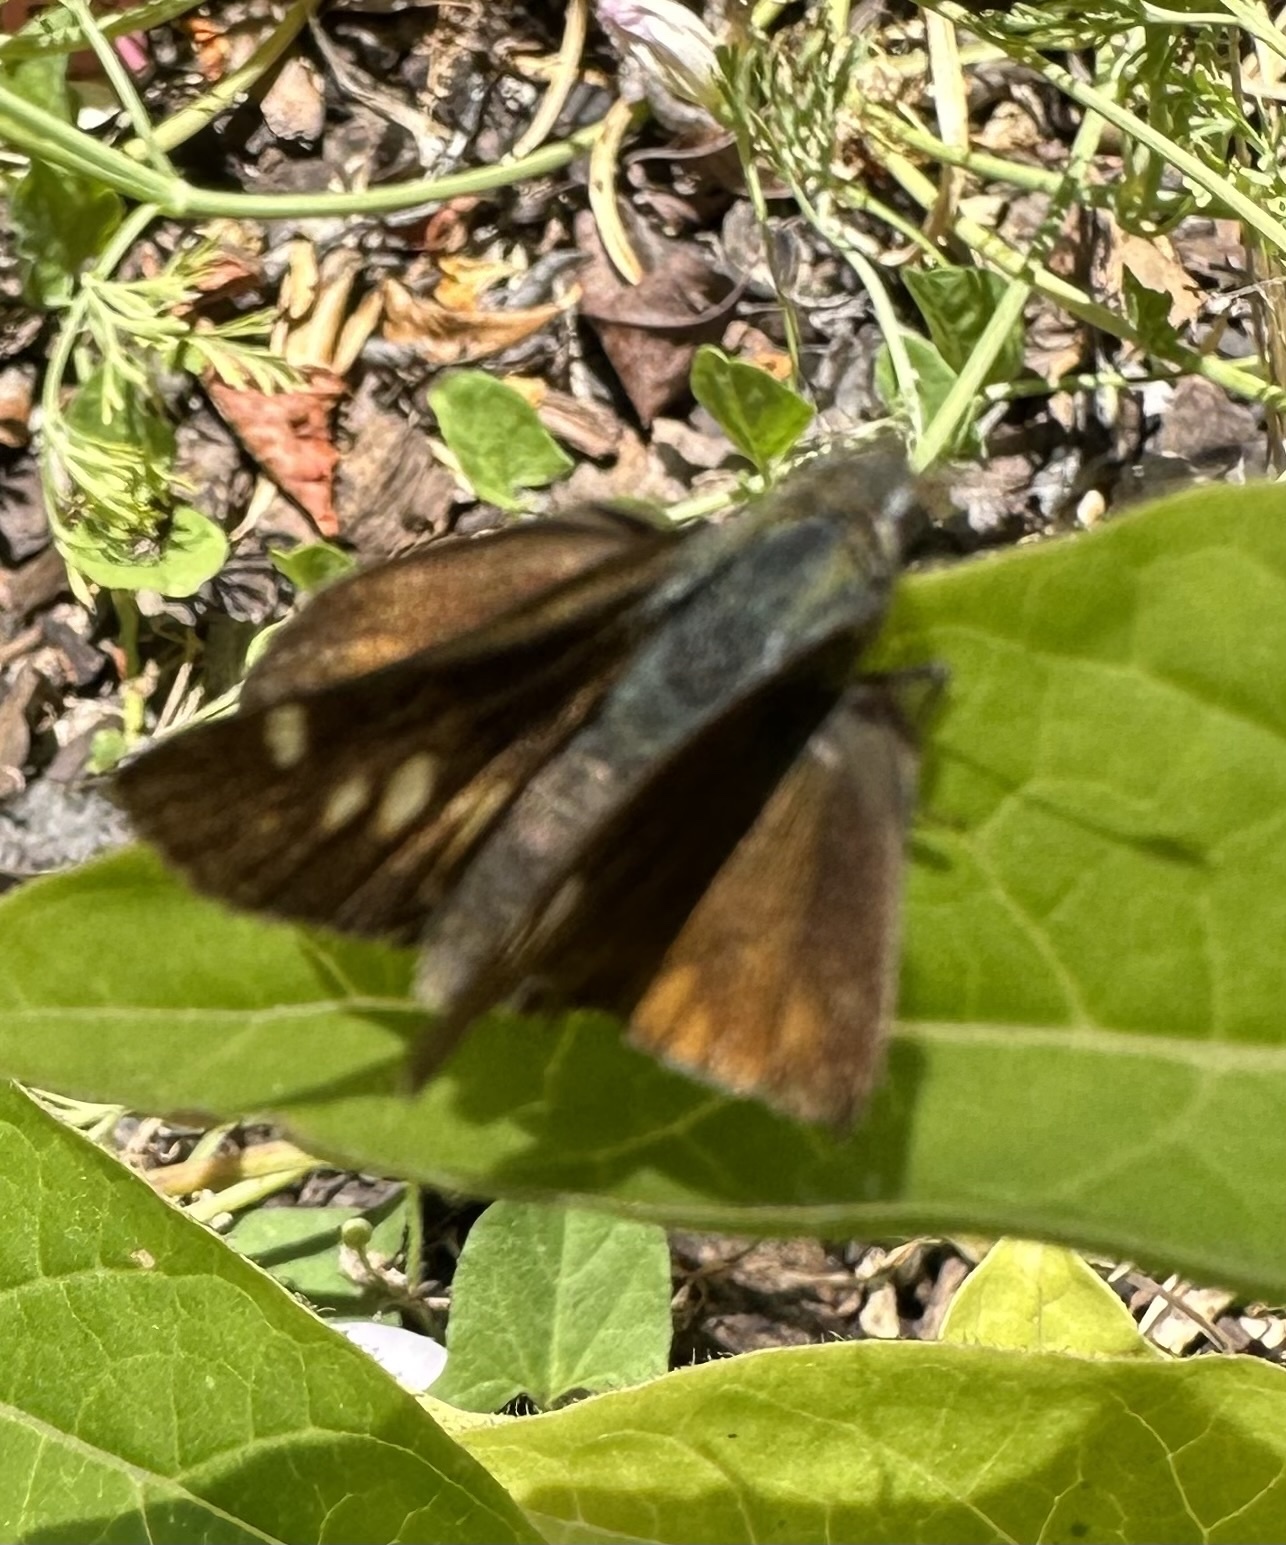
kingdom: Animalia
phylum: Arthropoda
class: Insecta
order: Lepidoptera
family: Hesperiidae
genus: Lon
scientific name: Lon melane
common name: Umber skipper
